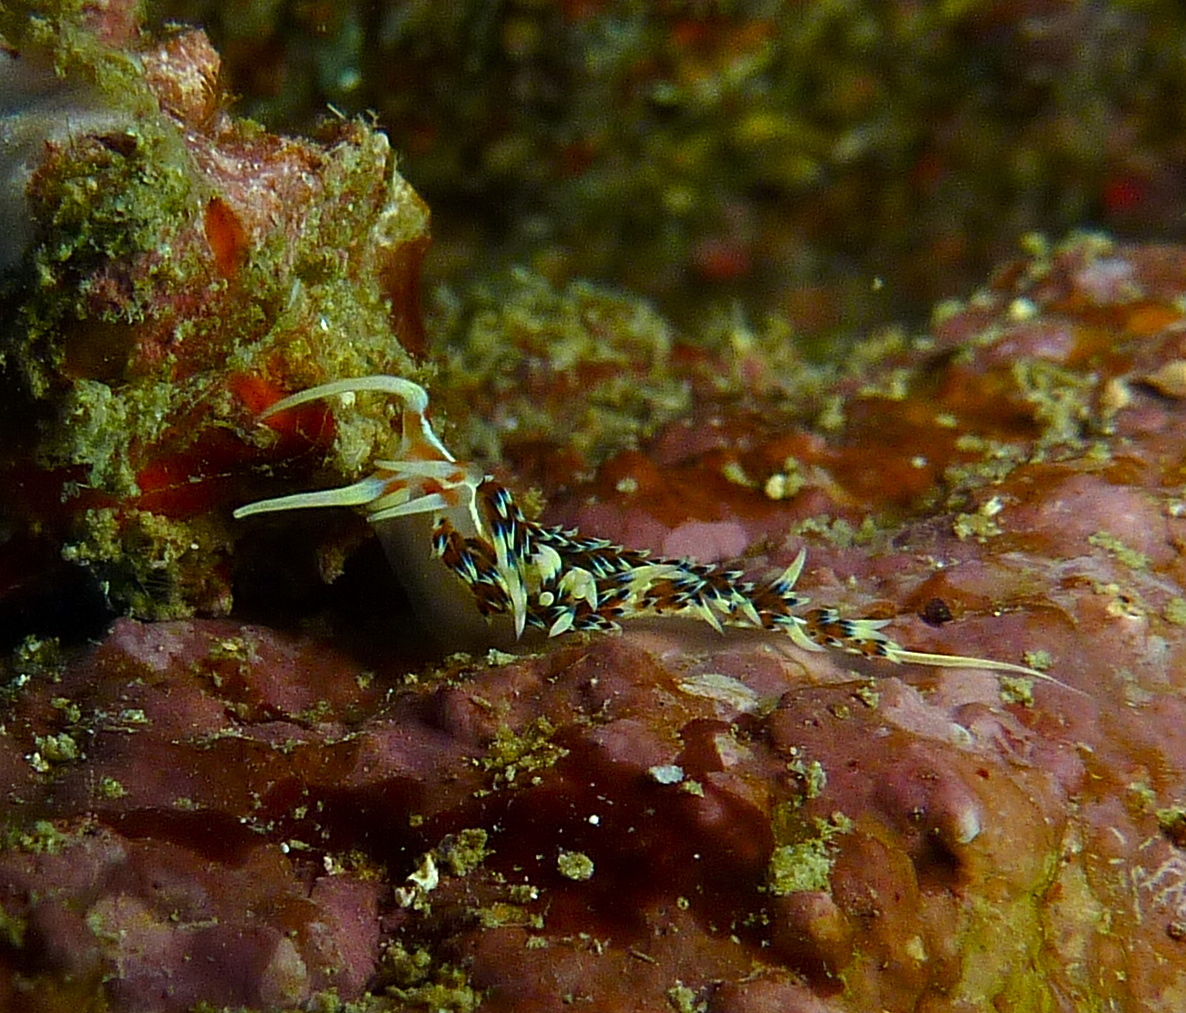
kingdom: Animalia
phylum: Mollusca
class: Gastropoda
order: Nudibranchia
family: Facelinidae
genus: Caloria
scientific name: Caloria indica
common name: Sea slug
